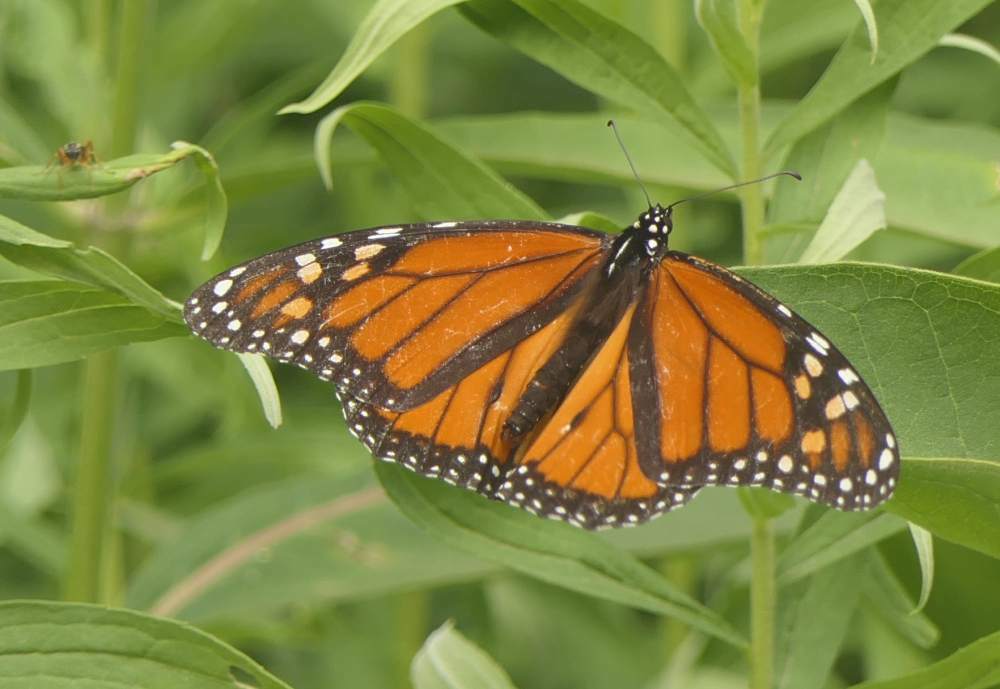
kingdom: Animalia
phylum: Arthropoda
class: Insecta
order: Lepidoptera
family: Nymphalidae
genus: Danaus
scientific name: Danaus plexippus
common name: Monarch
